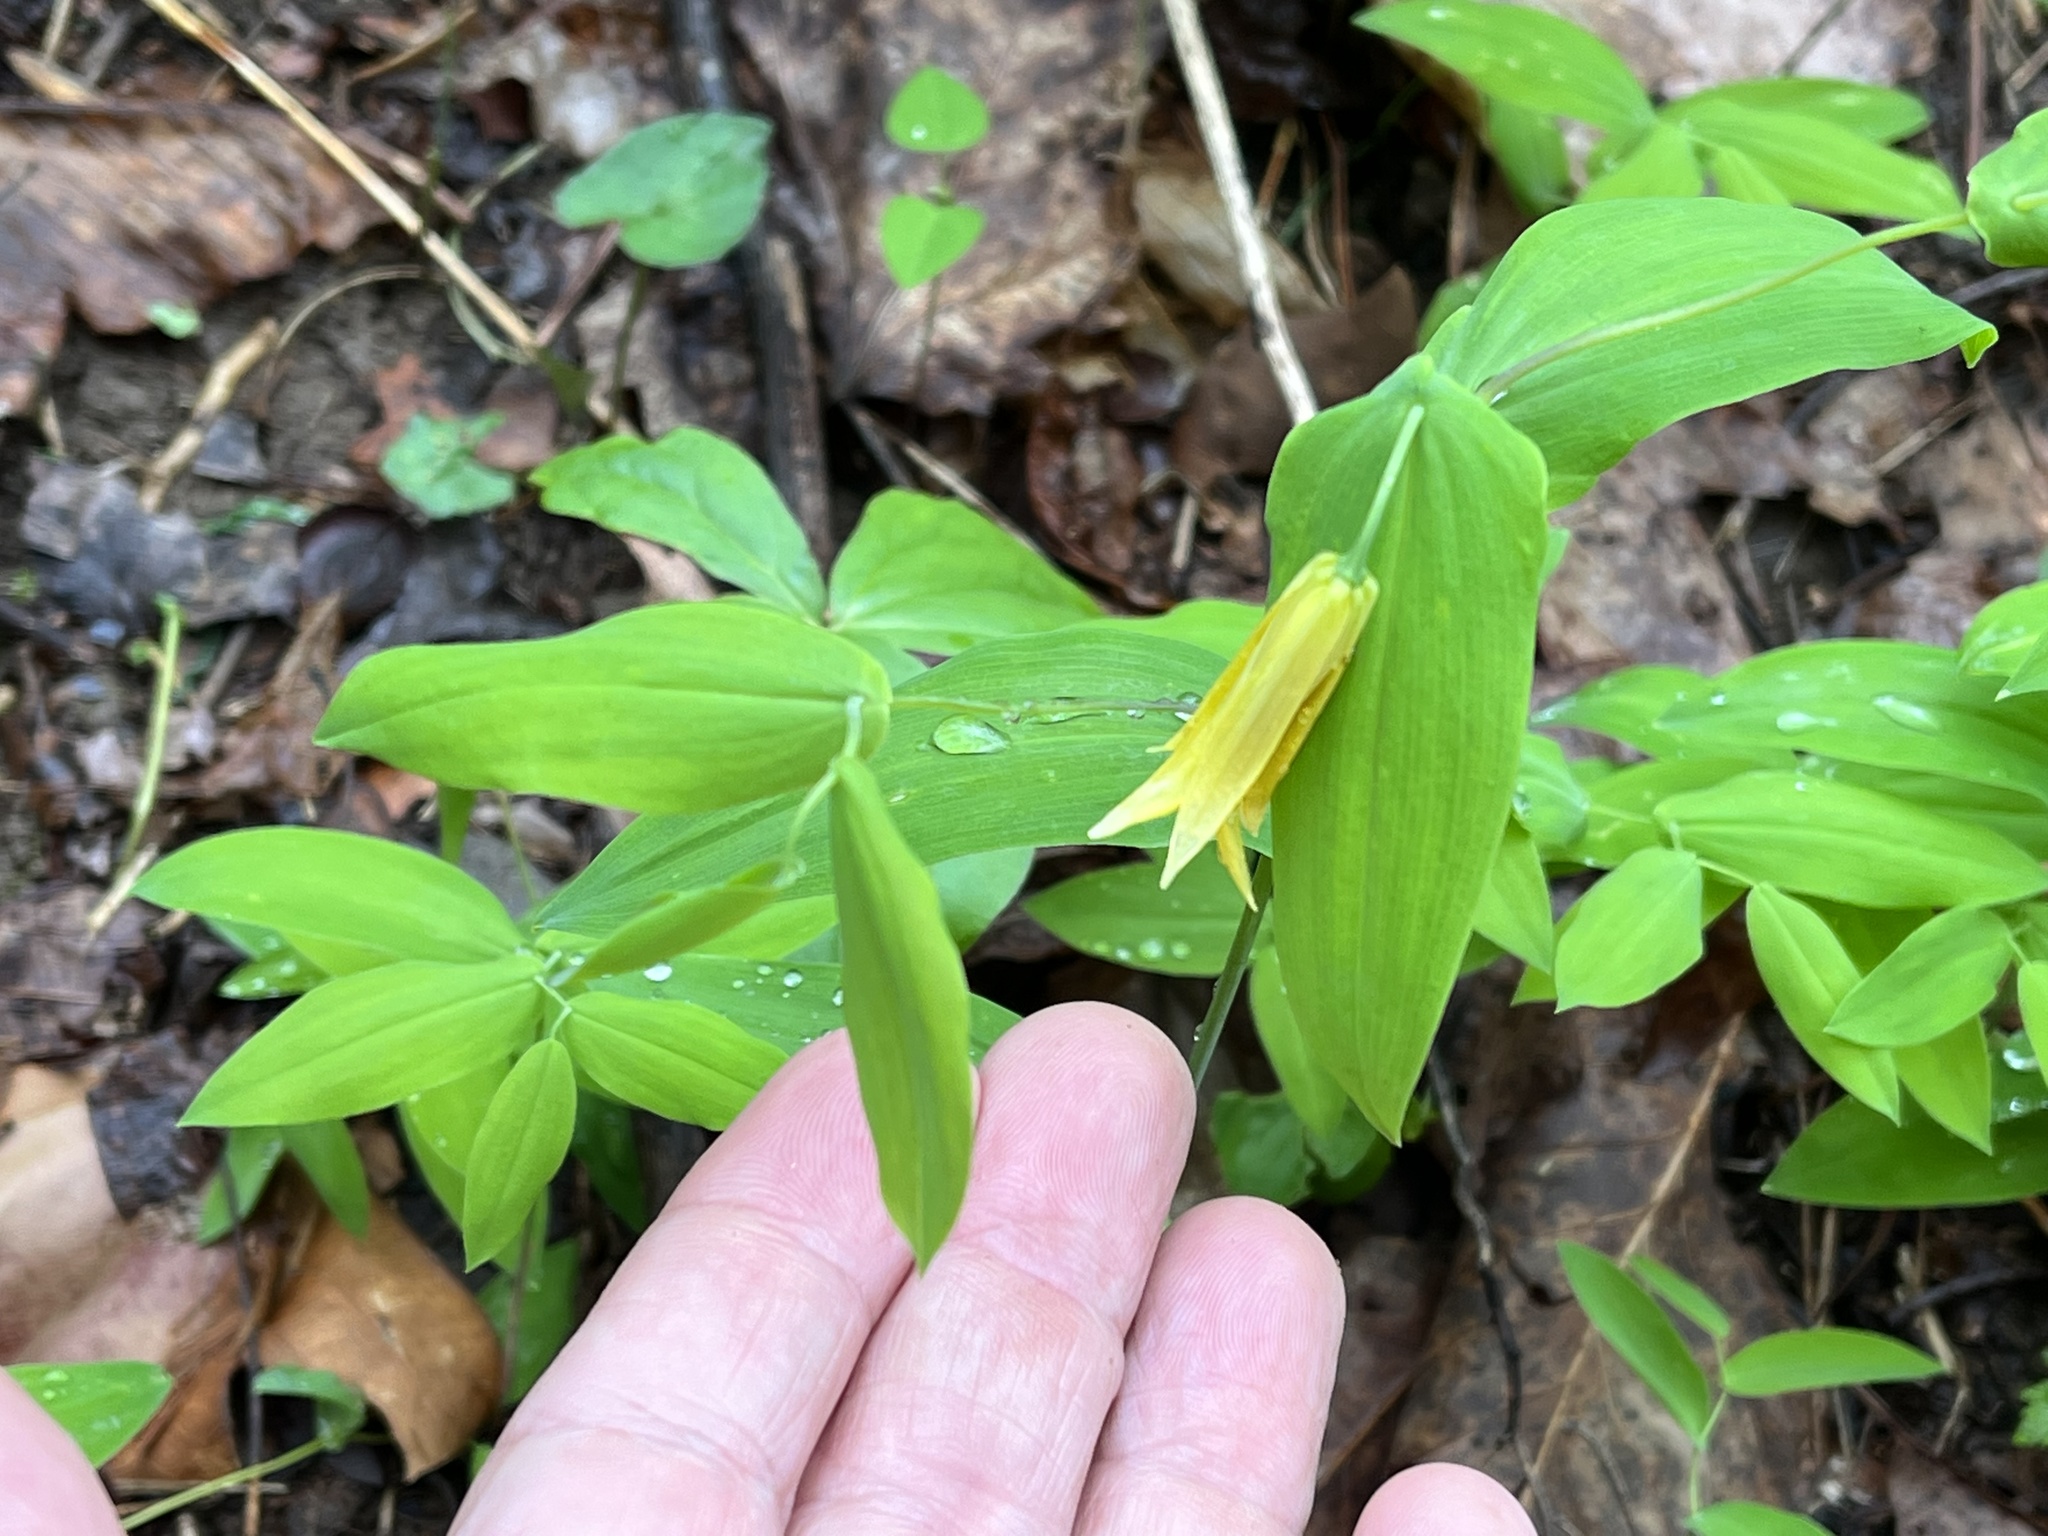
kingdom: Plantae
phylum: Tracheophyta
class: Liliopsida
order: Liliales
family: Colchicaceae
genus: Uvularia
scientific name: Uvularia perfoliata
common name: Perfoliate bellwort
